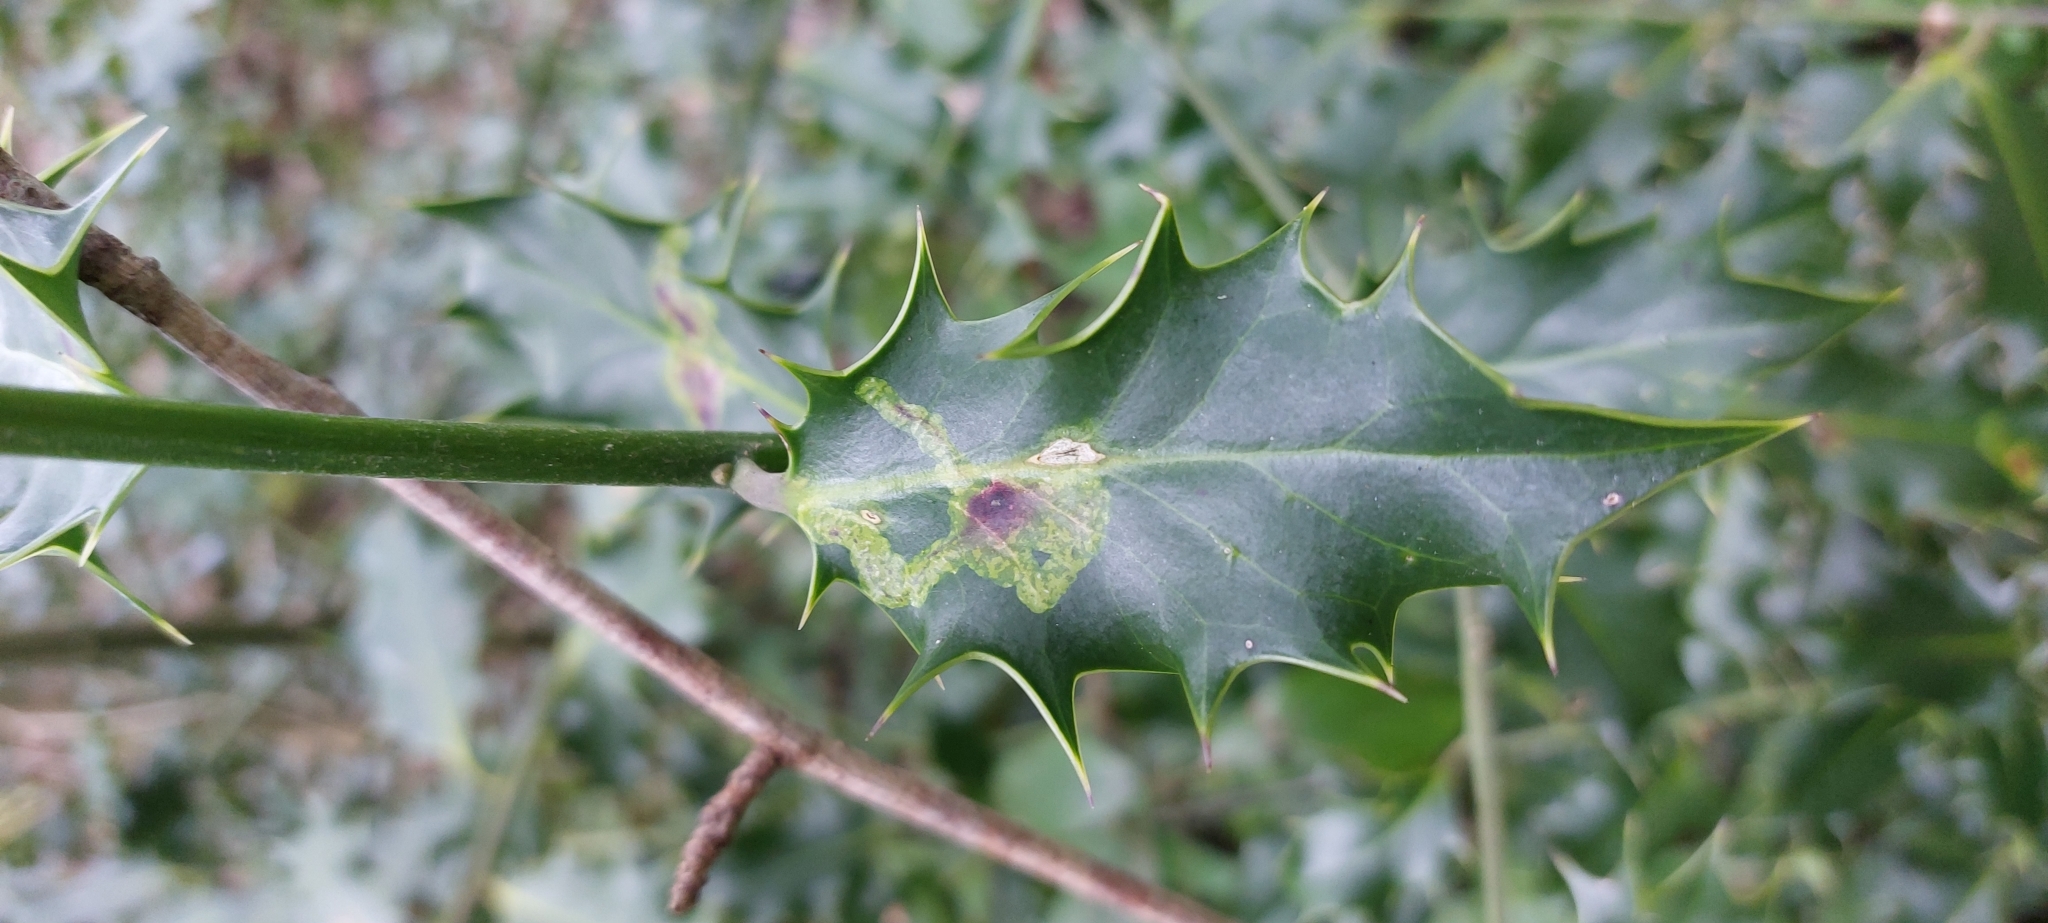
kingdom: Animalia
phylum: Arthropoda
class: Insecta
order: Diptera
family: Agromyzidae
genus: Phytomyza
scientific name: Phytomyza ilicis
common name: Holly leafminer
